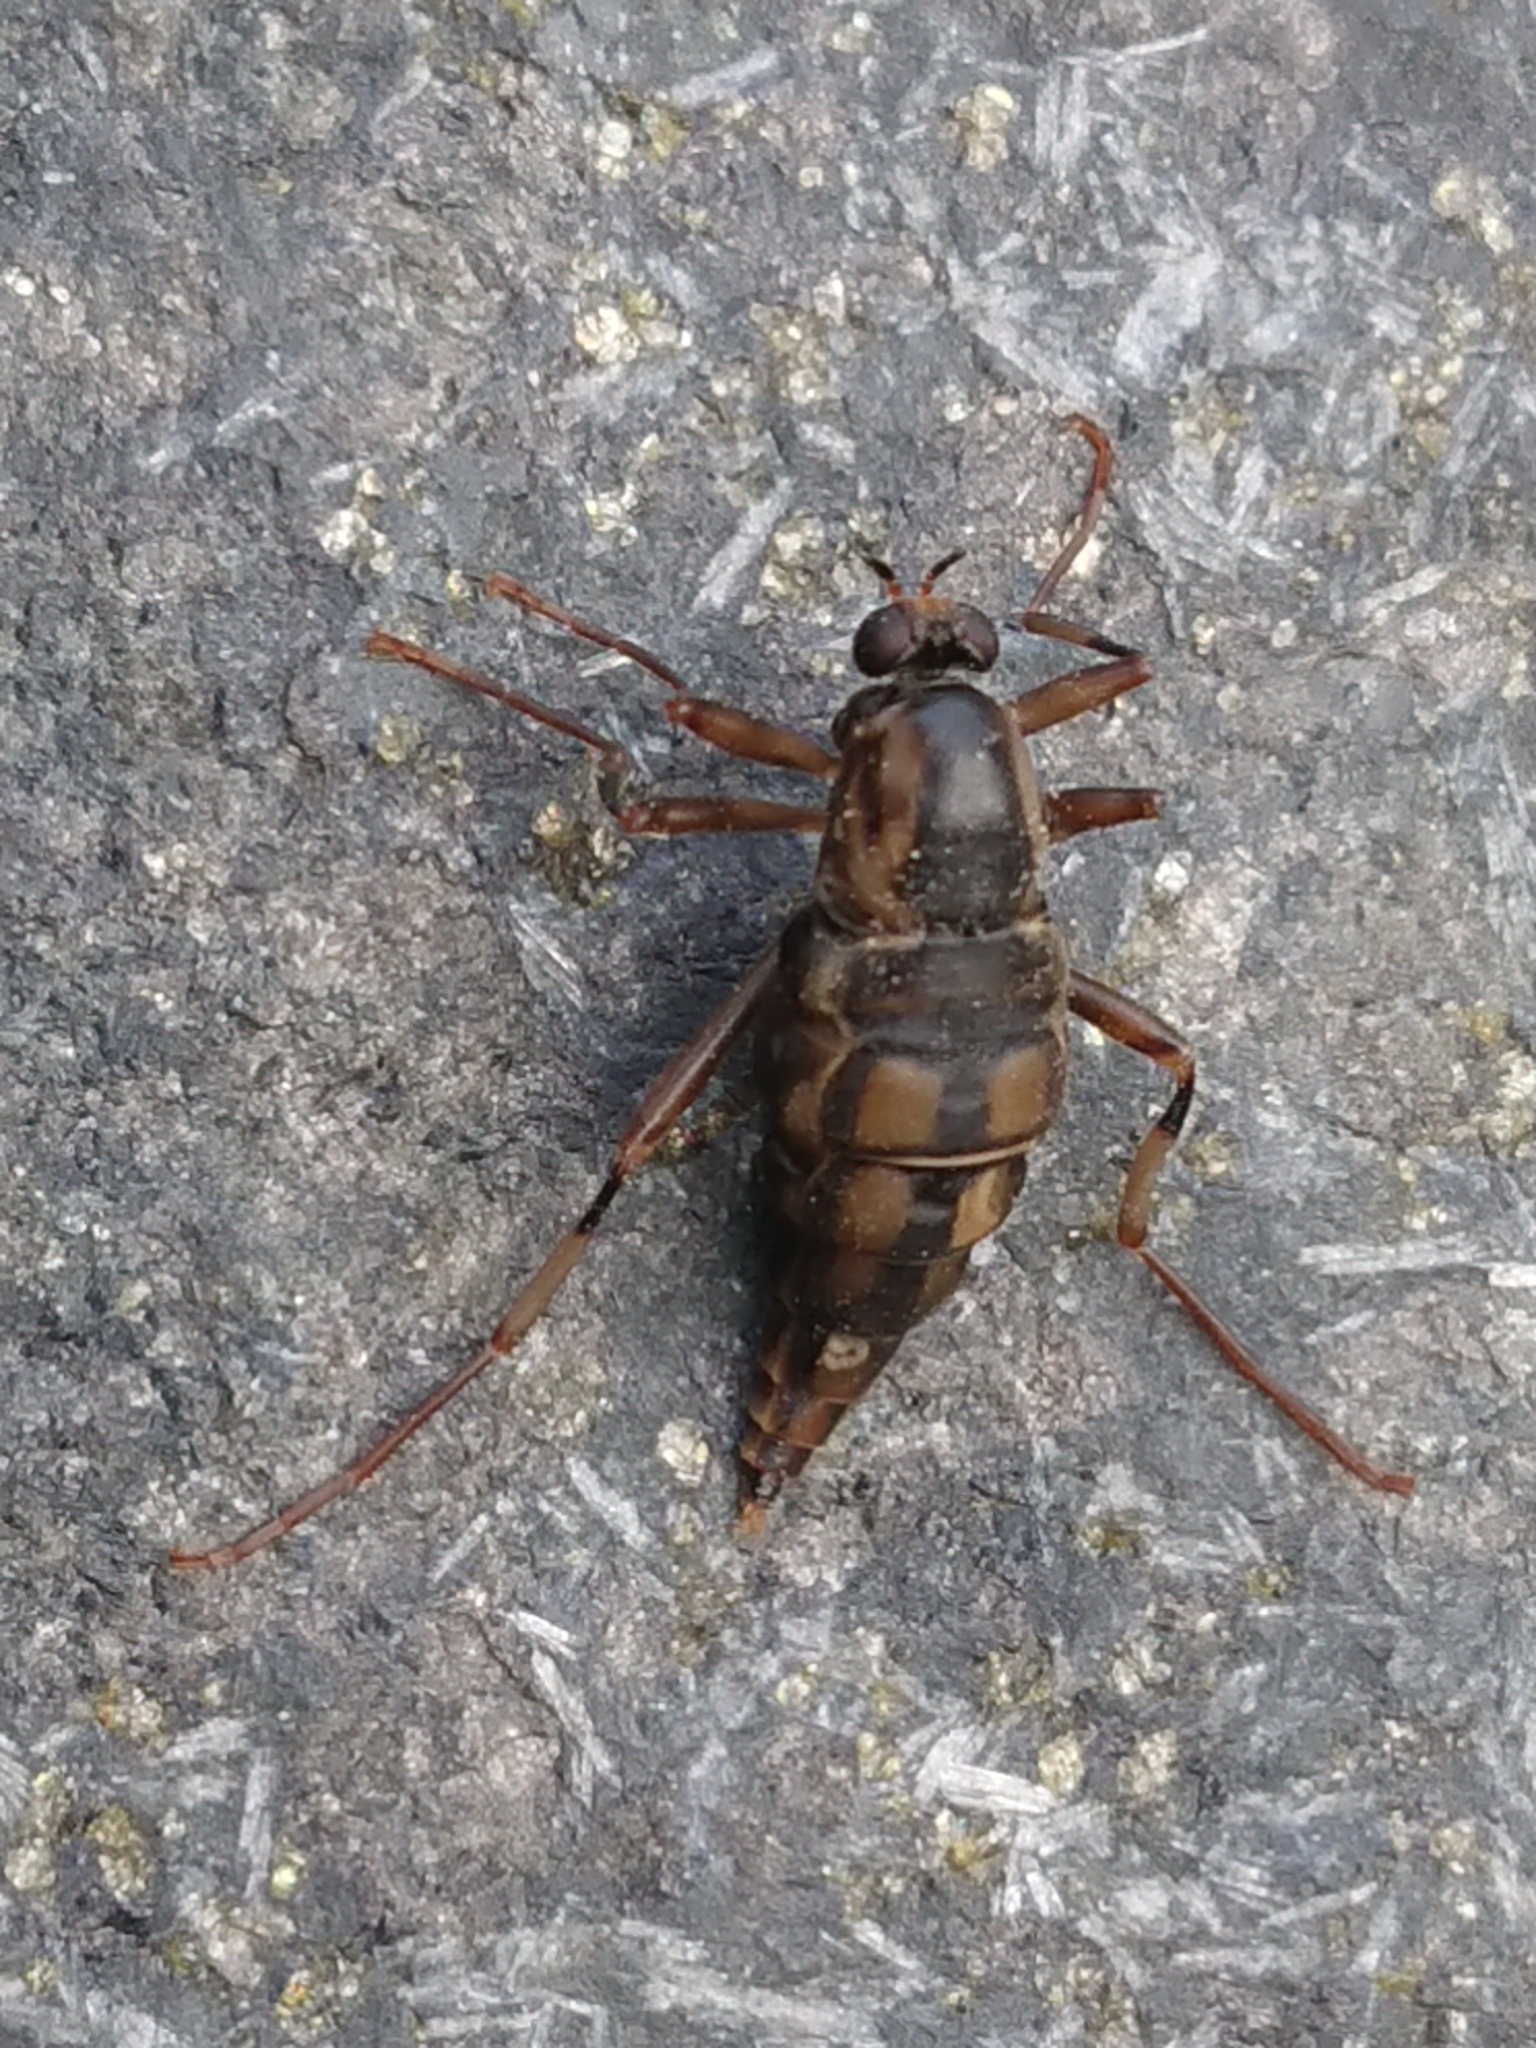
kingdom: Animalia
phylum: Arthropoda
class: Insecta
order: Diptera
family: Stratiomyidae
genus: Boreoides
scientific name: Boreoides tasmaniensis
